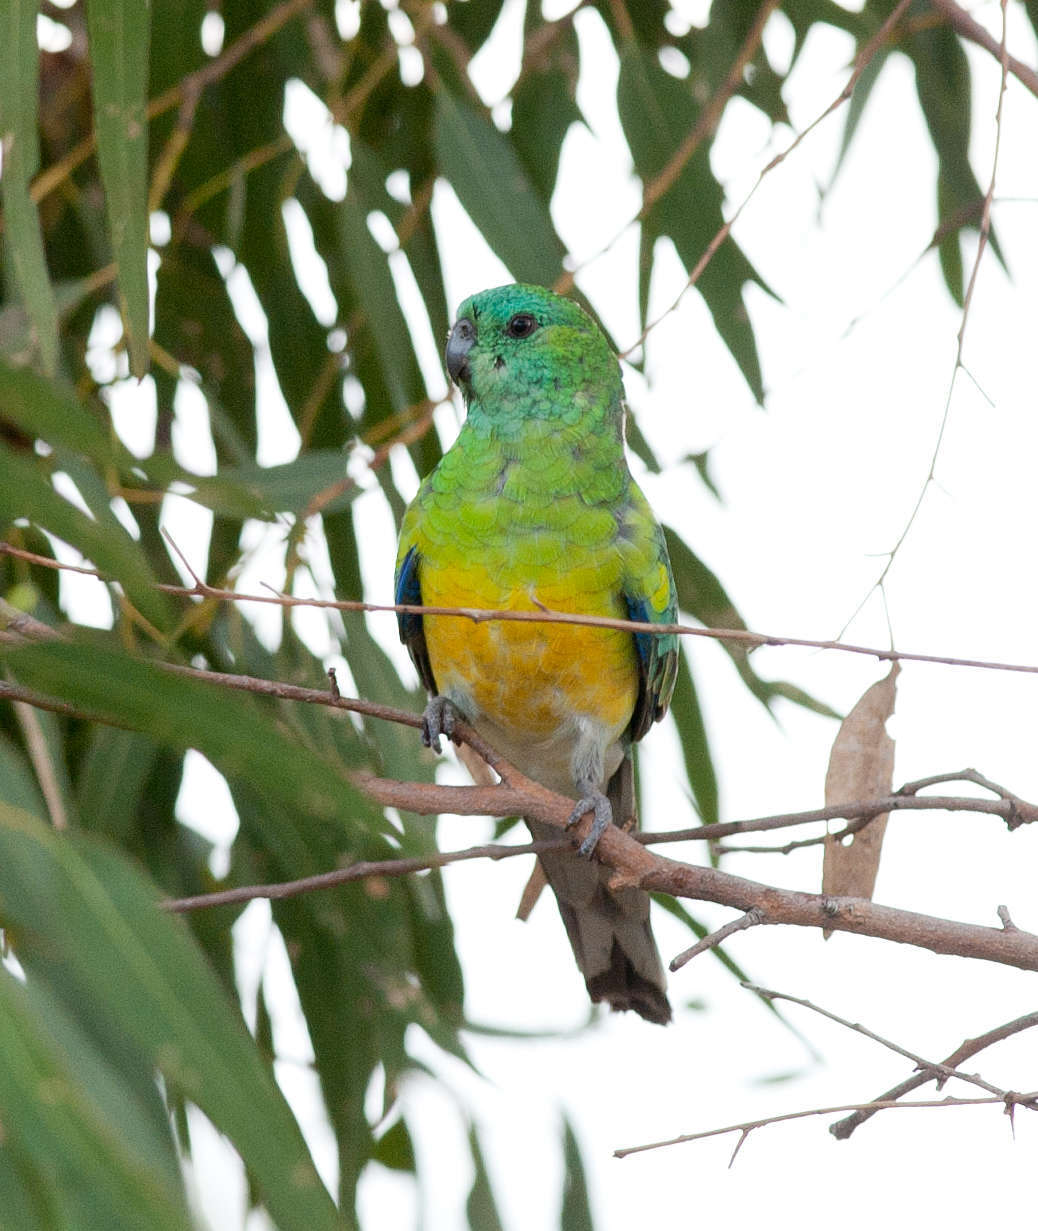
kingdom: Animalia
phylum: Chordata
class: Aves
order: Psittaciformes
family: Psittacidae
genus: Psephotus
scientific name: Psephotus haematonotus
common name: Red-rumped parrot
